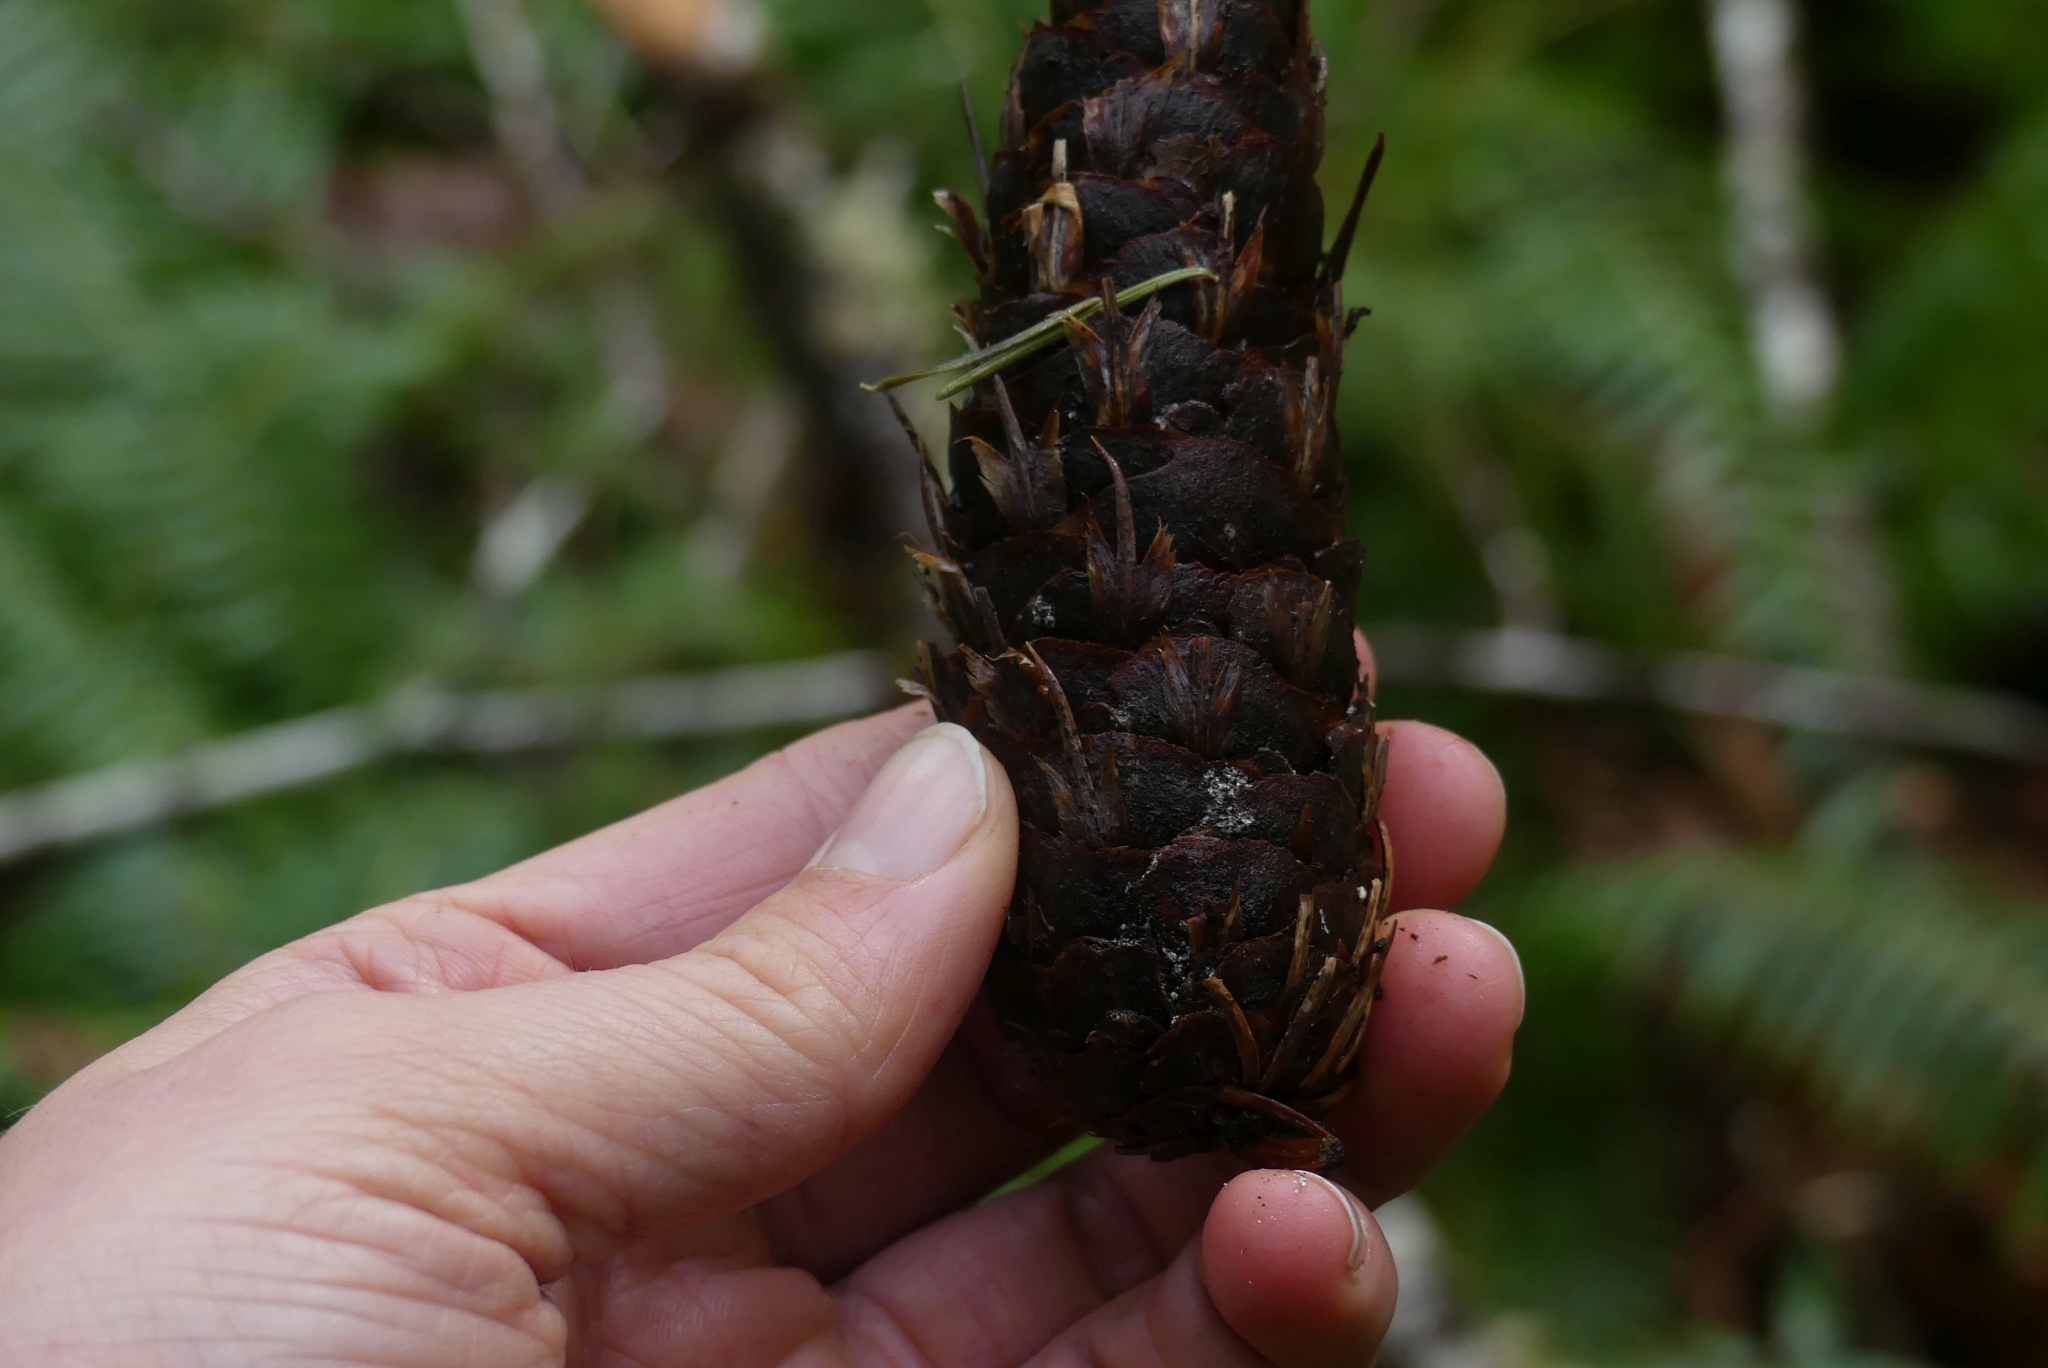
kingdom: Plantae
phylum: Tracheophyta
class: Pinopsida
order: Pinales
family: Pinaceae
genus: Pseudotsuga
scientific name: Pseudotsuga menziesii
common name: Douglas fir
